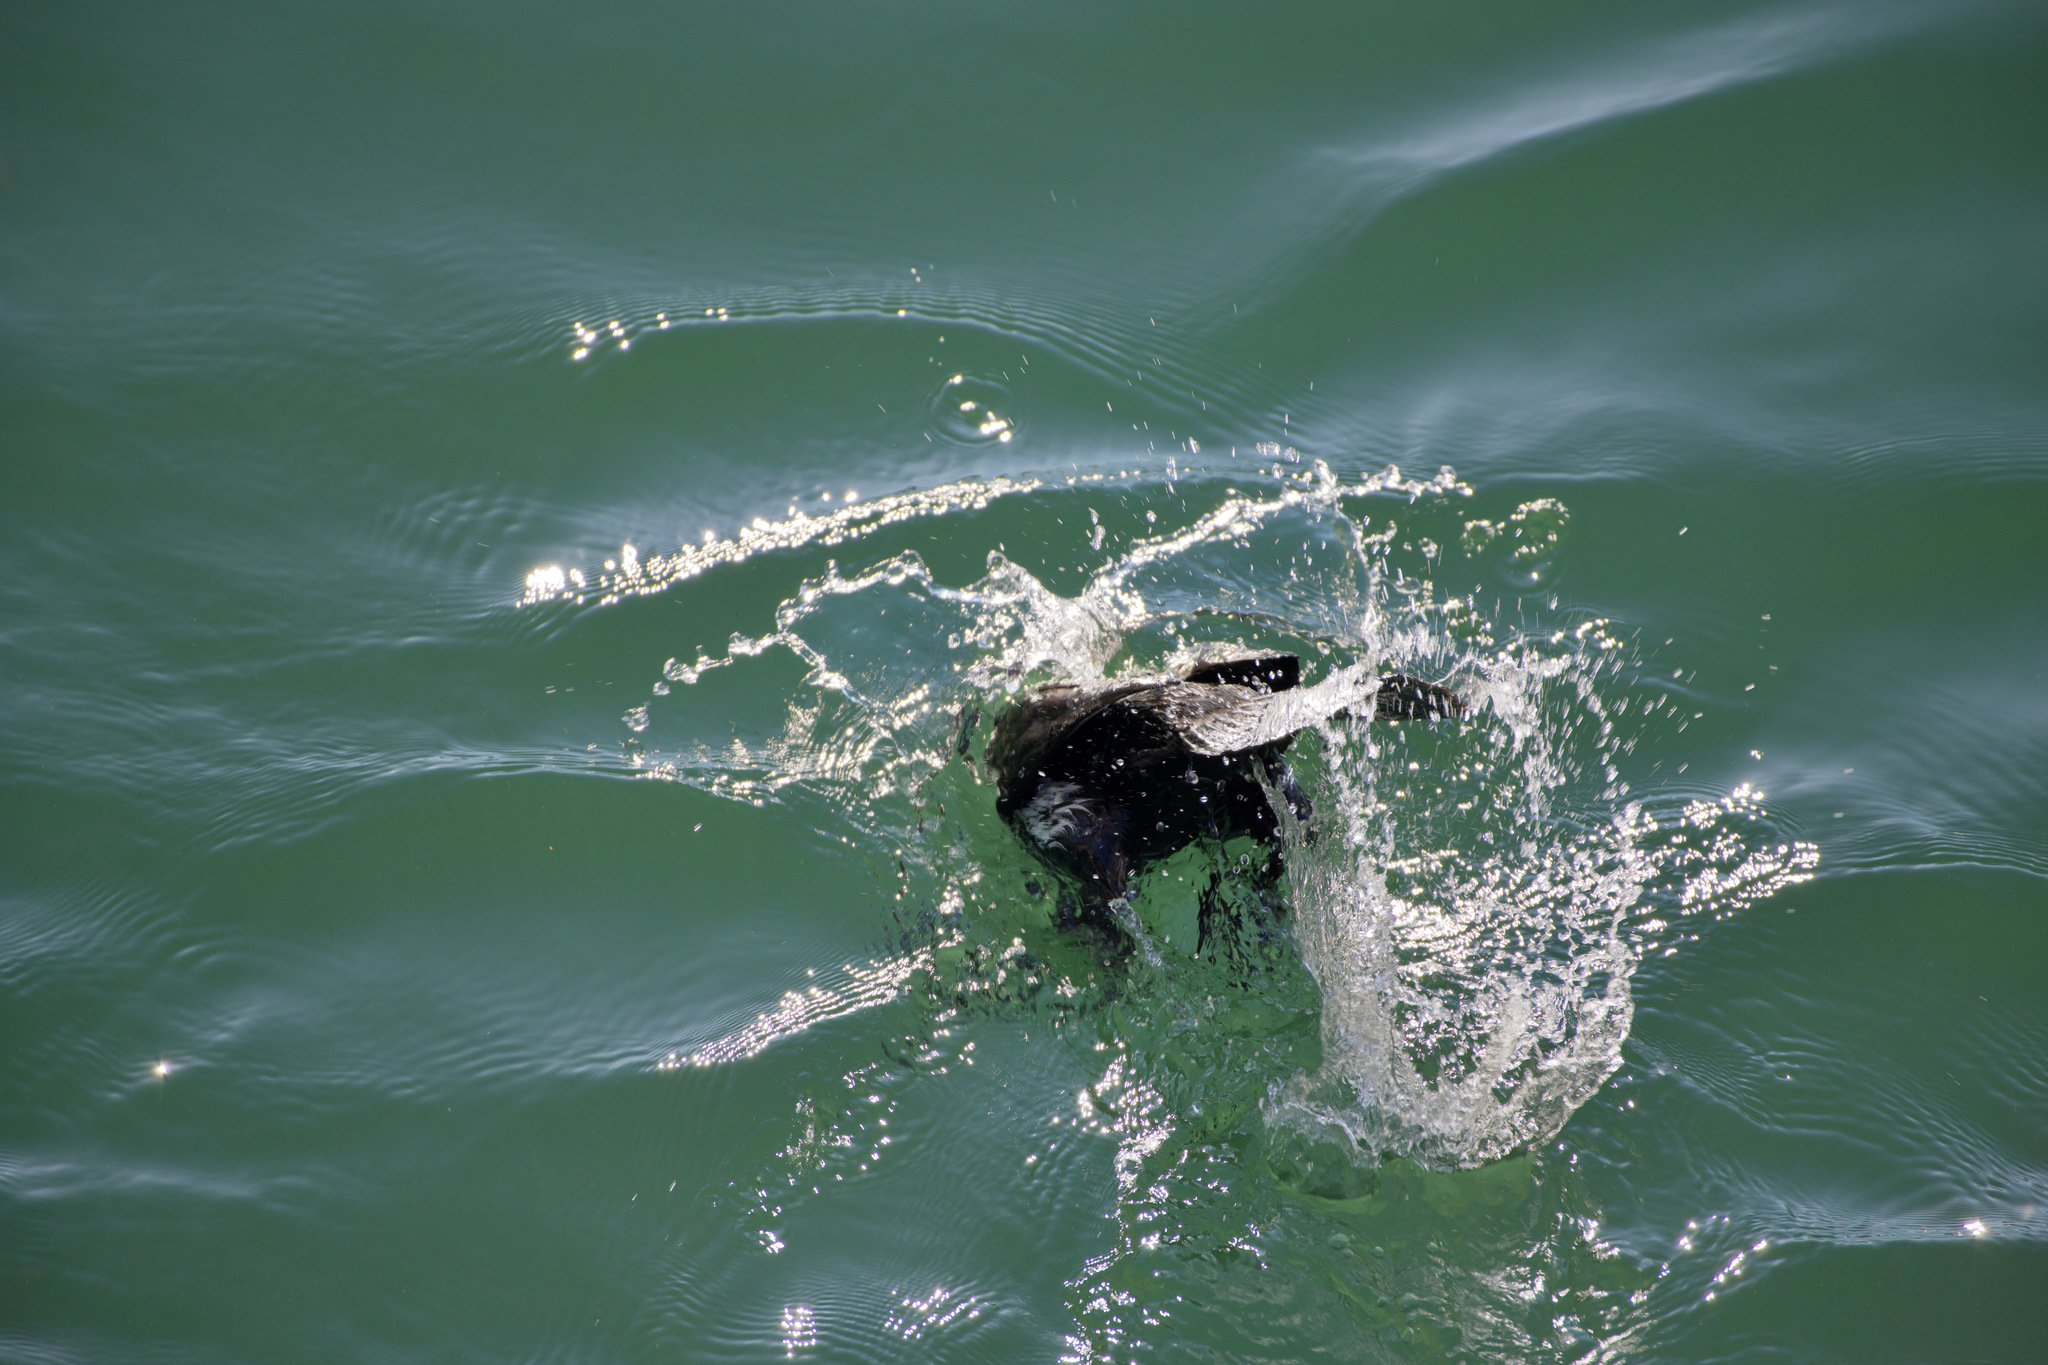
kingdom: Animalia
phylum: Chordata
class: Aves
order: Suliformes
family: Phalacrocoracidae
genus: Phalacrocorax
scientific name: Phalacrocorax carbo
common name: Great cormorant
